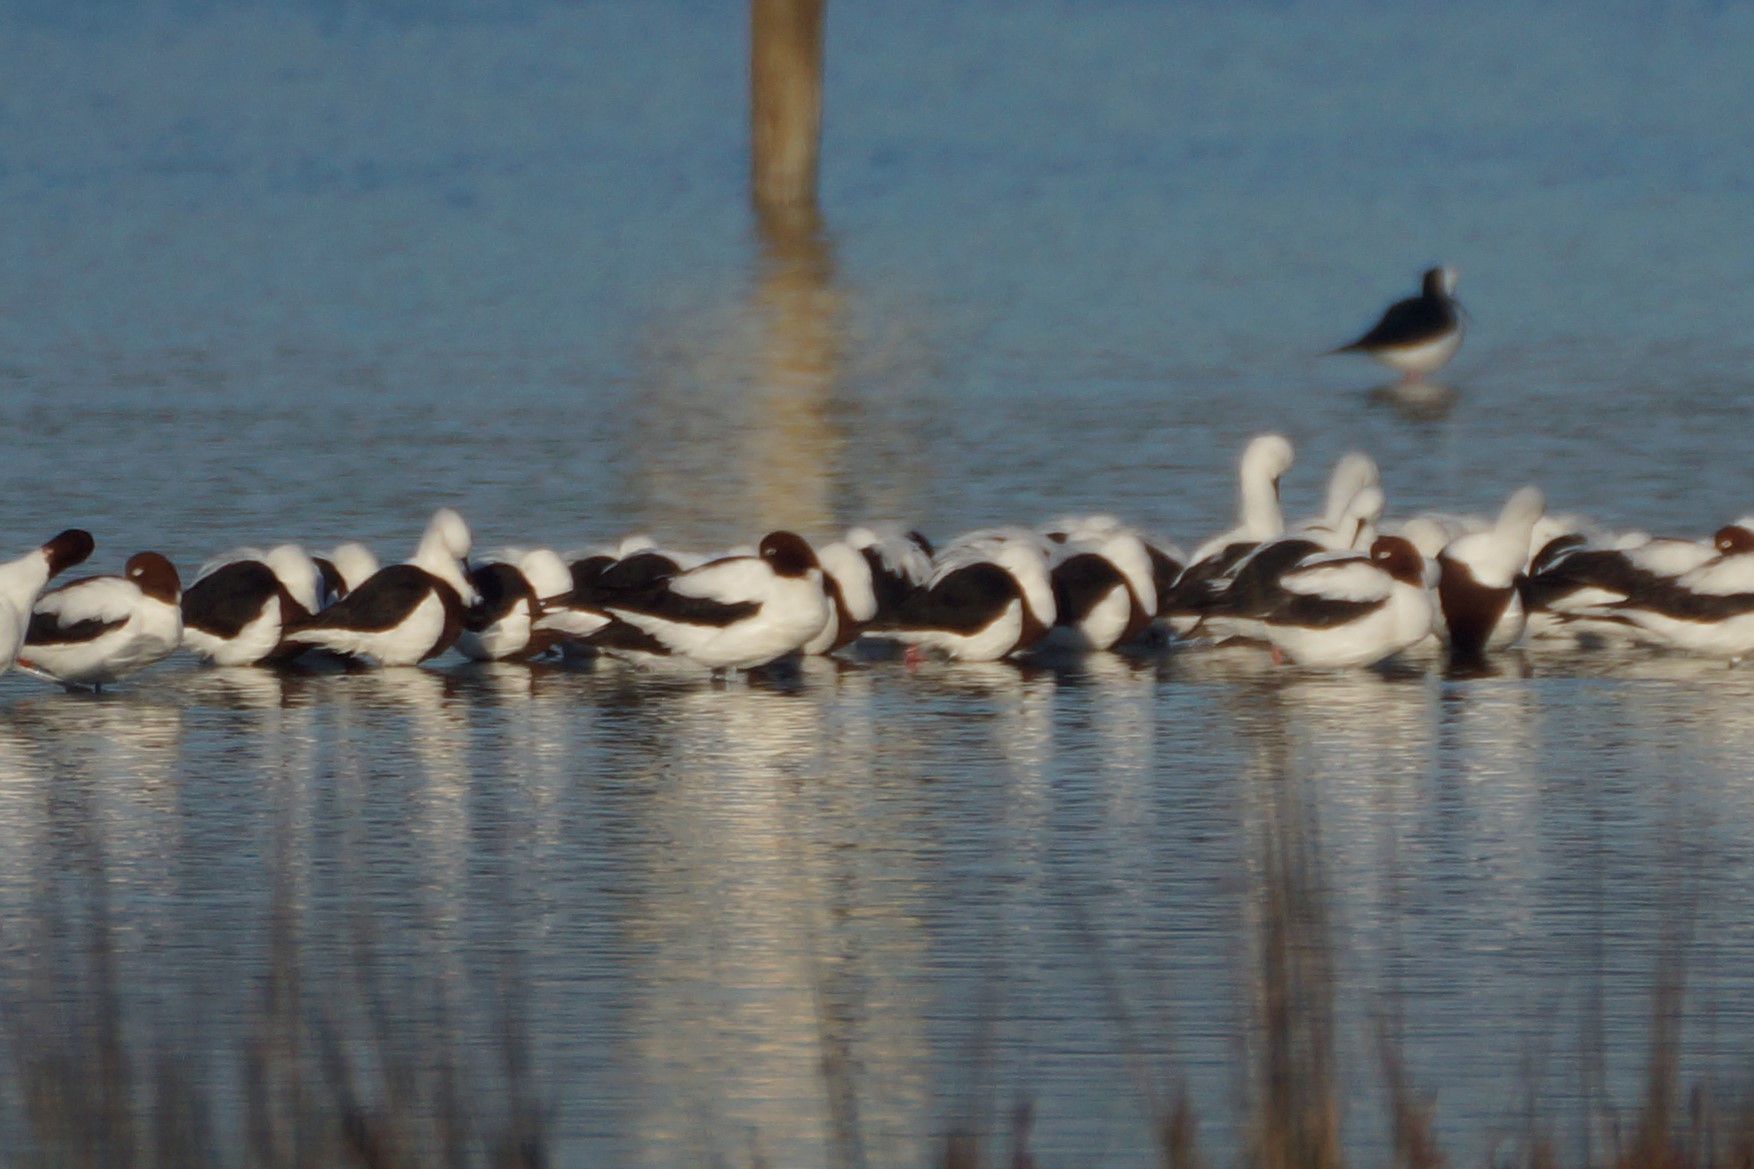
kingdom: Animalia
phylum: Chordata
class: Aves
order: Charadriiformes
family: Recurvirostridae
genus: Cladorhynchus
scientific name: Cladorhynchus leucocephalus
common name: Banded stilt
